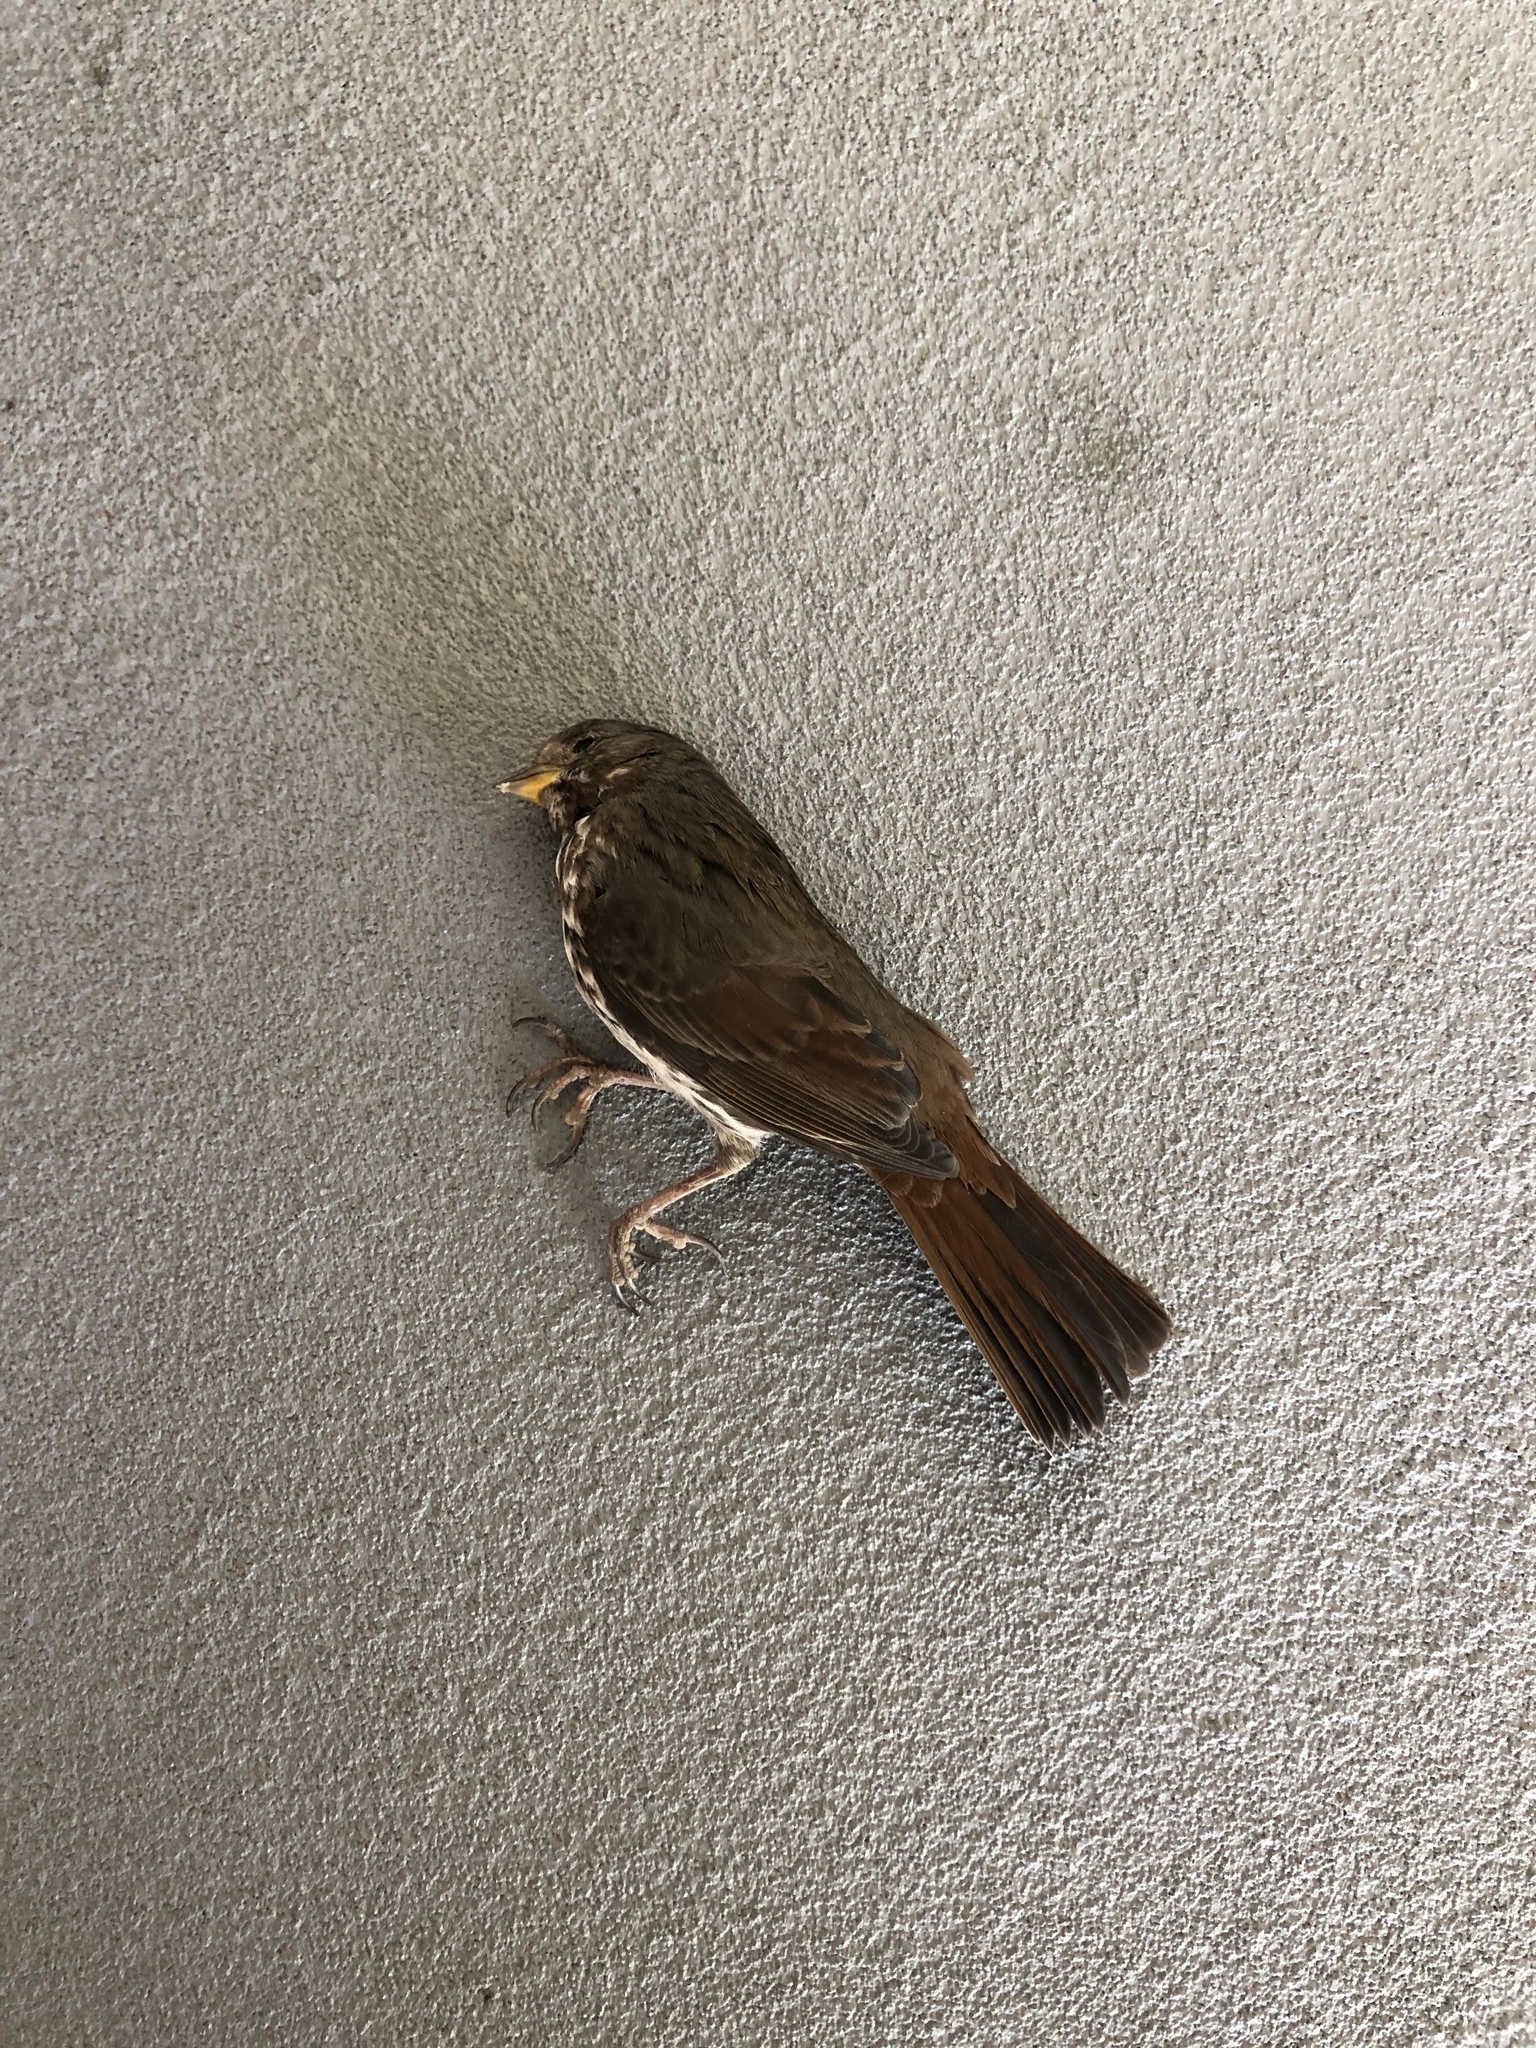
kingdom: Animalia
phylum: Chordata
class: Aves
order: Passeriformes
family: Passerellidae
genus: Passerella
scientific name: Passerella iliaca
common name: Fox sparrow
